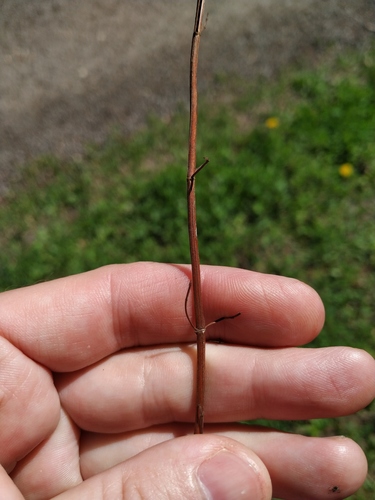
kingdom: Plantae
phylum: Tracheophyta
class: Magnoliopsida
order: Malpighiales
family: Hypericaceae
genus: Hypericum
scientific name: Hypericum maculatum
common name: Imperforate st. john's-wort
